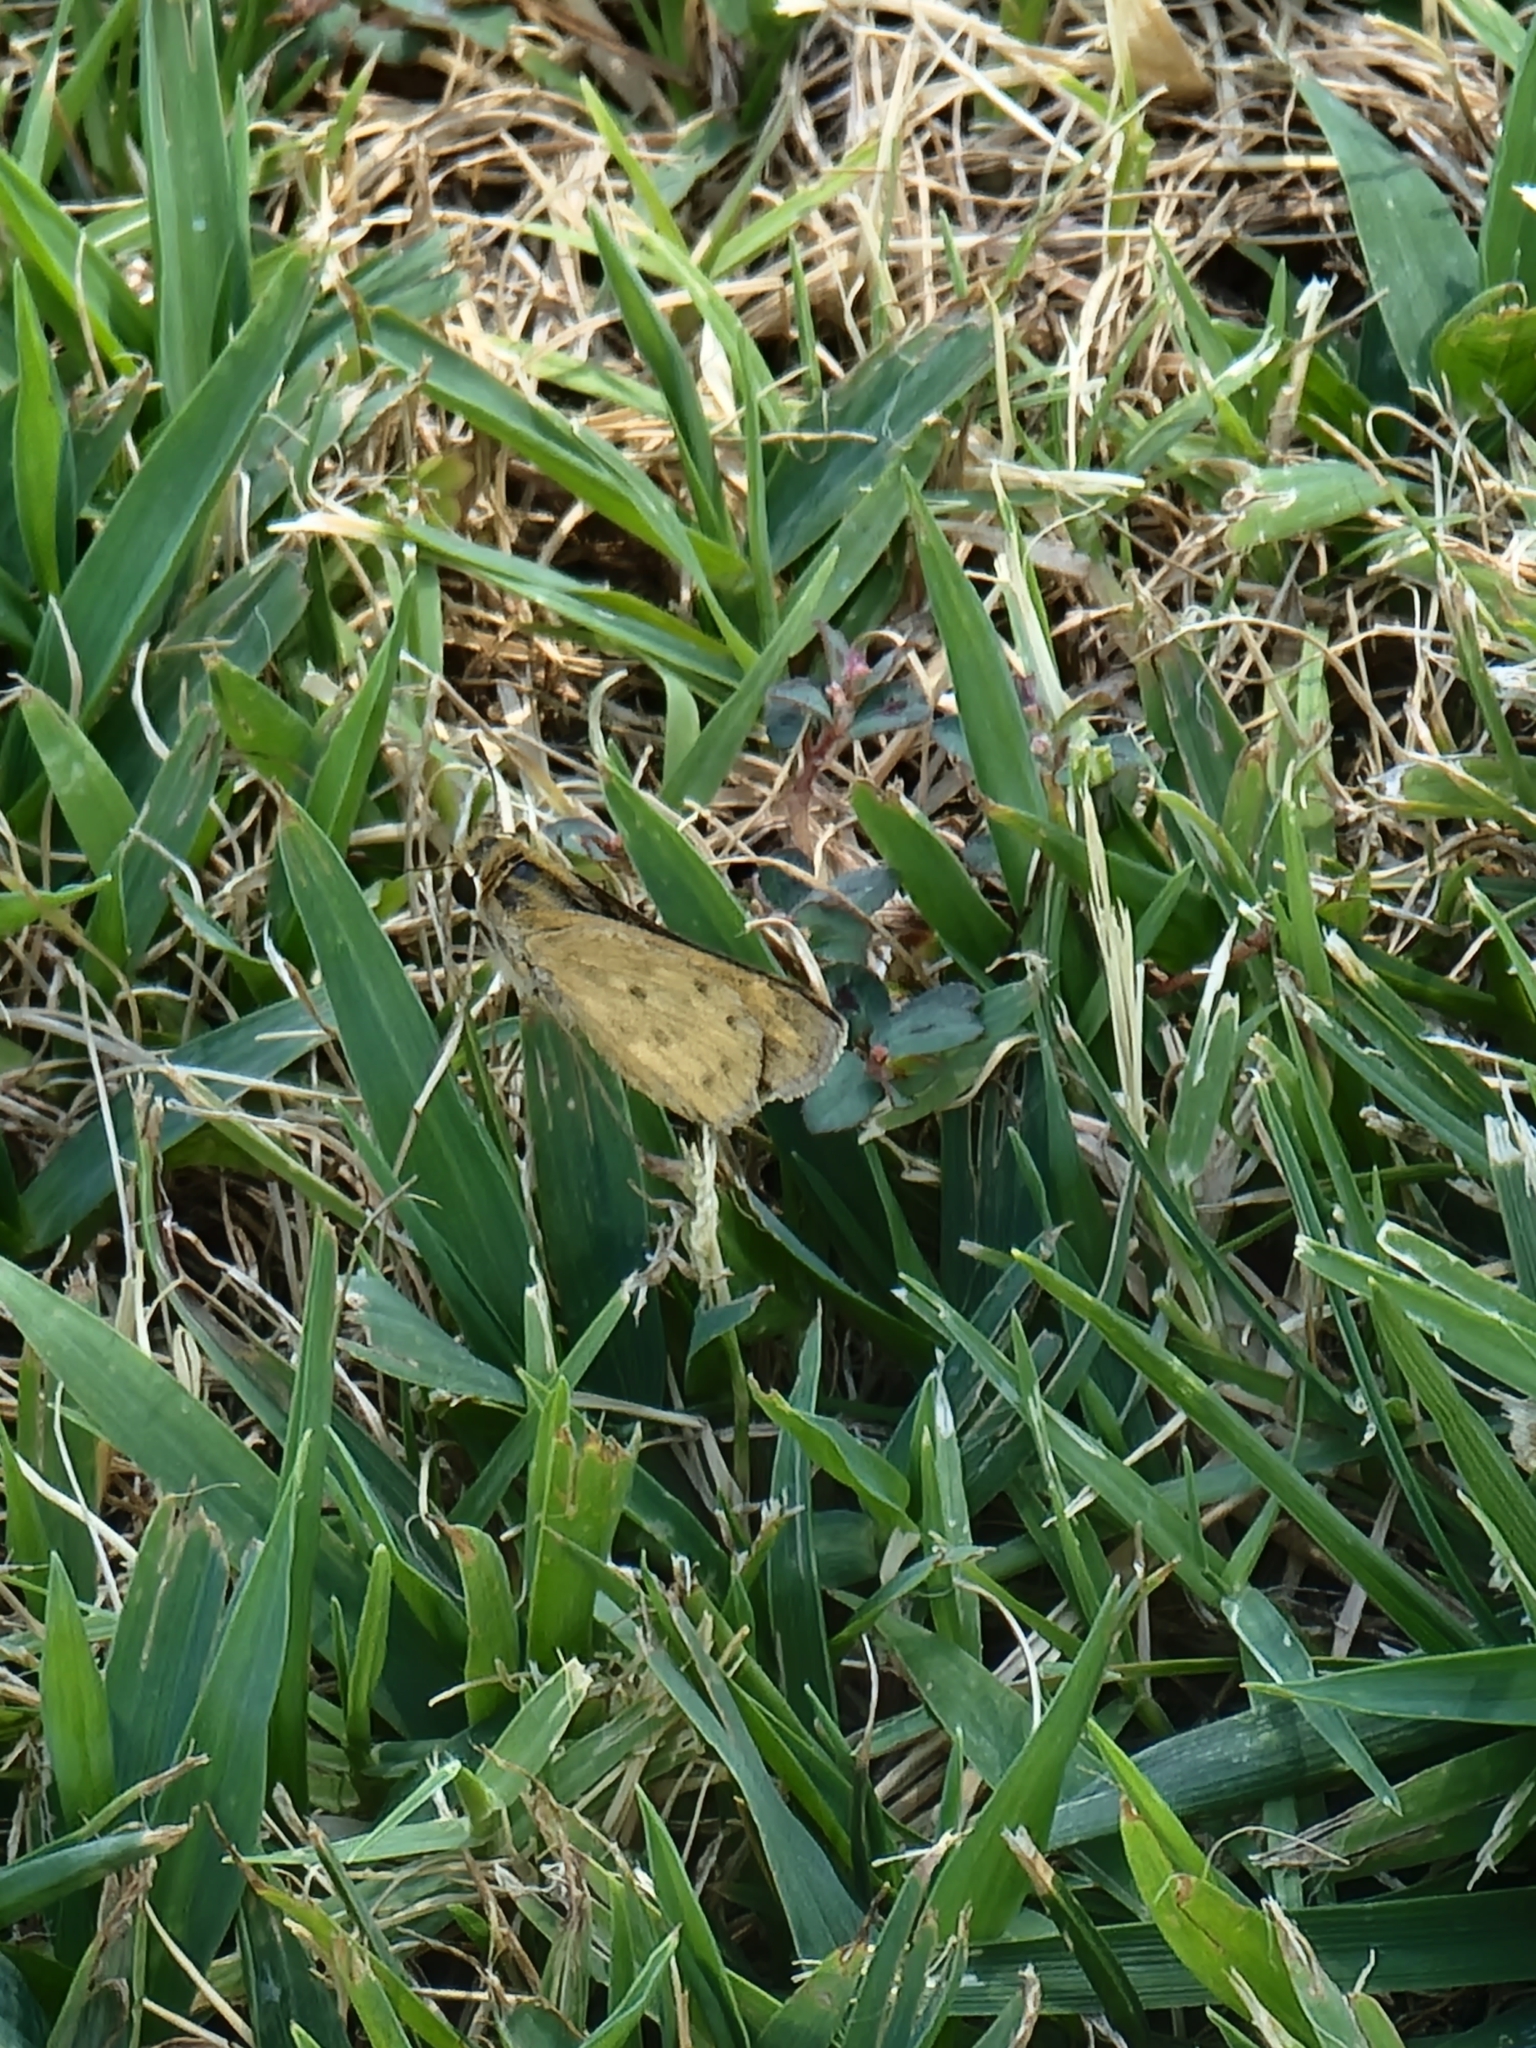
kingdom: Animalia
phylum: Arthropoda
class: Insecta
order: Lepidoptera
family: Hesperiidae
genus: Hylephila
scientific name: Hylephila phyleus
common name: Fiery skipper
